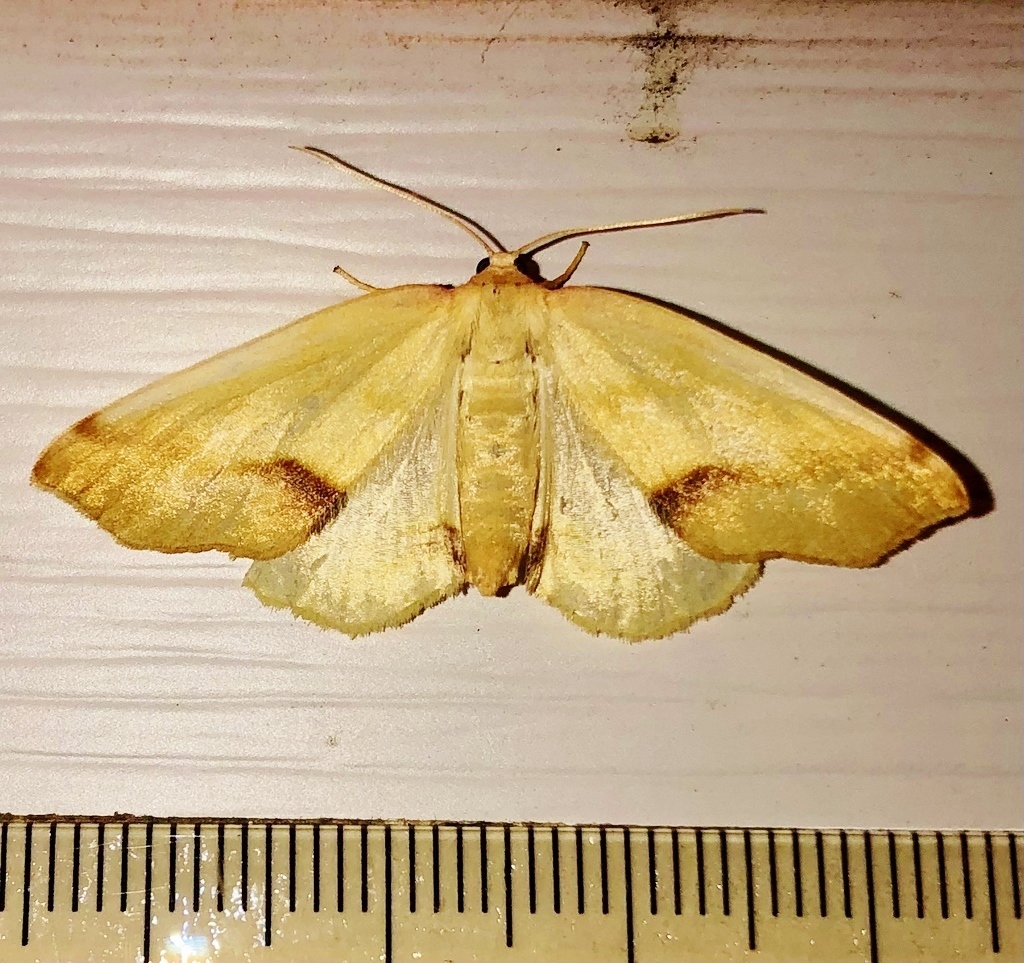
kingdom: Animalia
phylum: Arthropoda
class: Insecta
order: Lepidoptera
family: Geometridae
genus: Plagodis
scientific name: Plagodis serinaria
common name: Lemon plagodis
